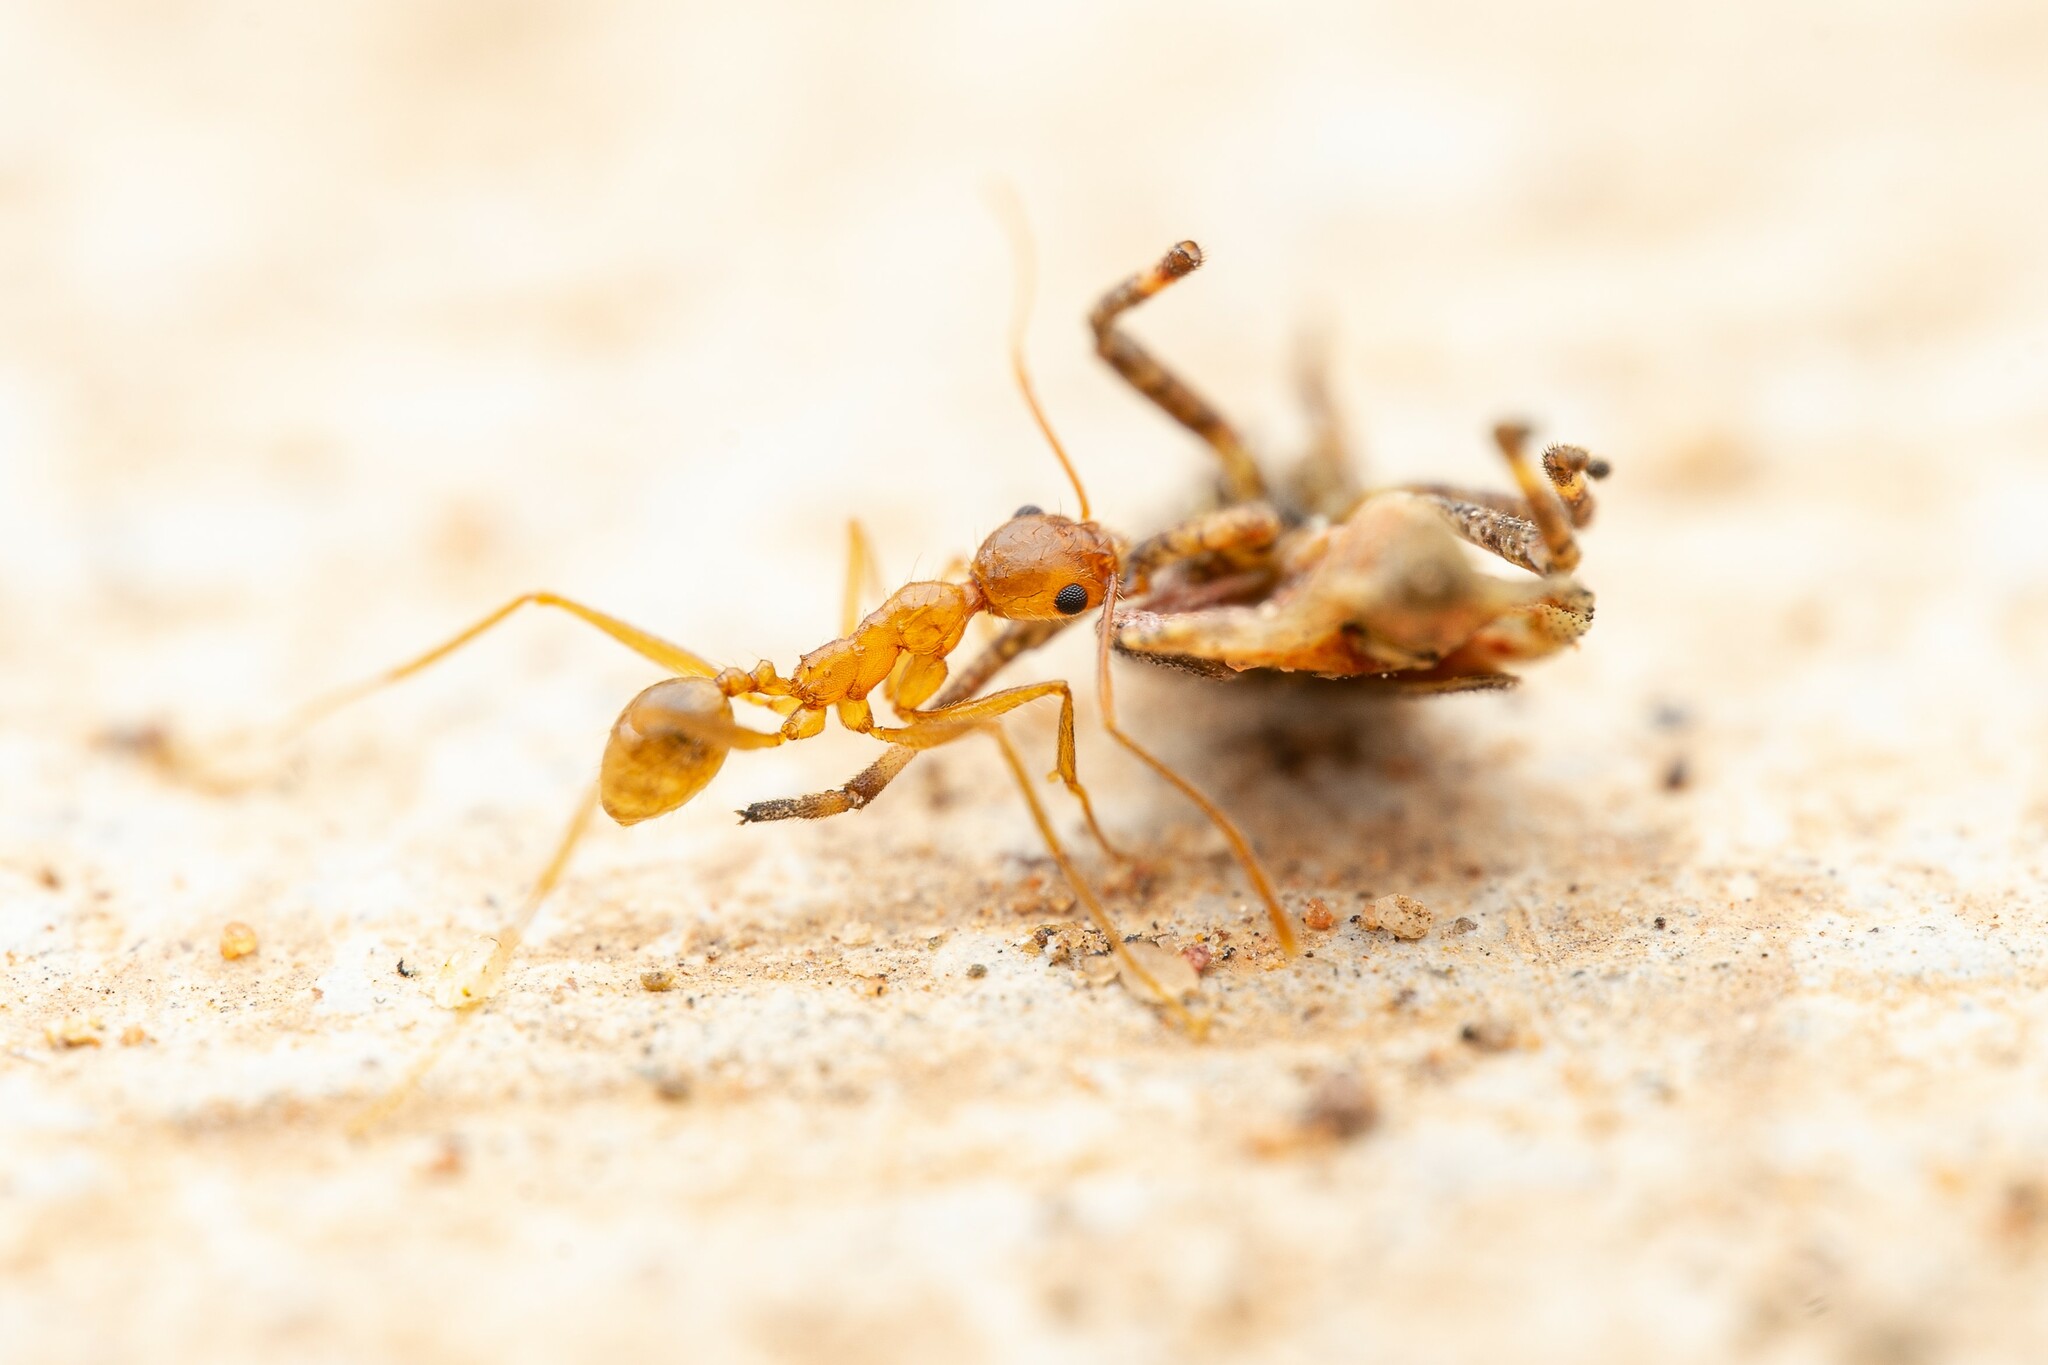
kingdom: Animalia
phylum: Arthropoda
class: Insecta
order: Hymenoptera
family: Formicidae
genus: Pheidole
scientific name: Pheidole desertorum
